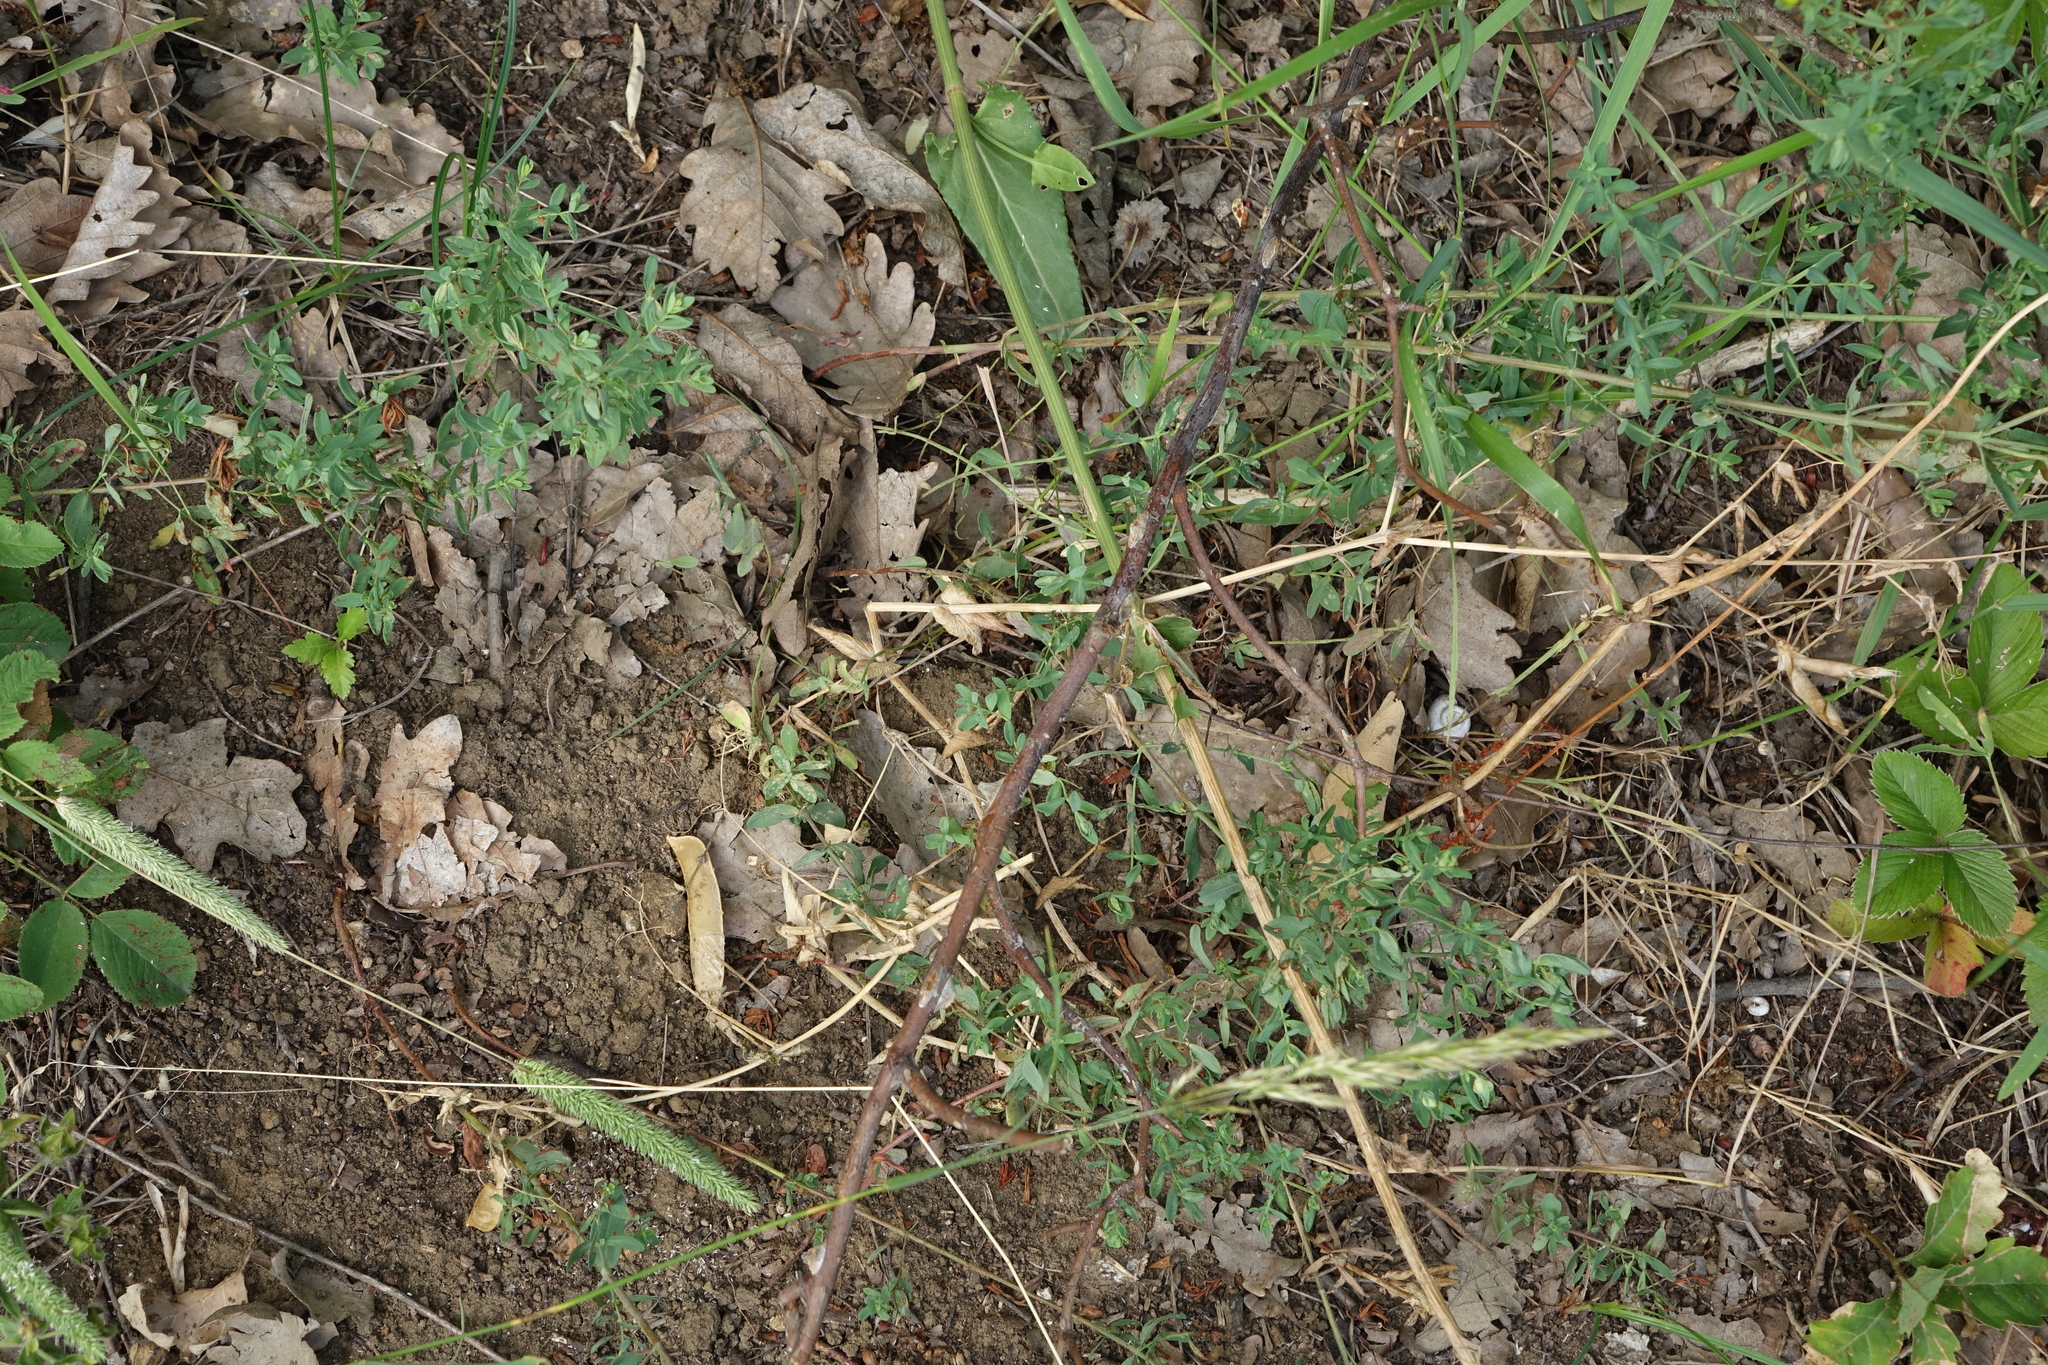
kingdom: Plantae
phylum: Tracheophyta
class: Magnoliopsida
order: Fabales
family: Fabaceae
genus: Lathyrus
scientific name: Lathyrus oleraceus
